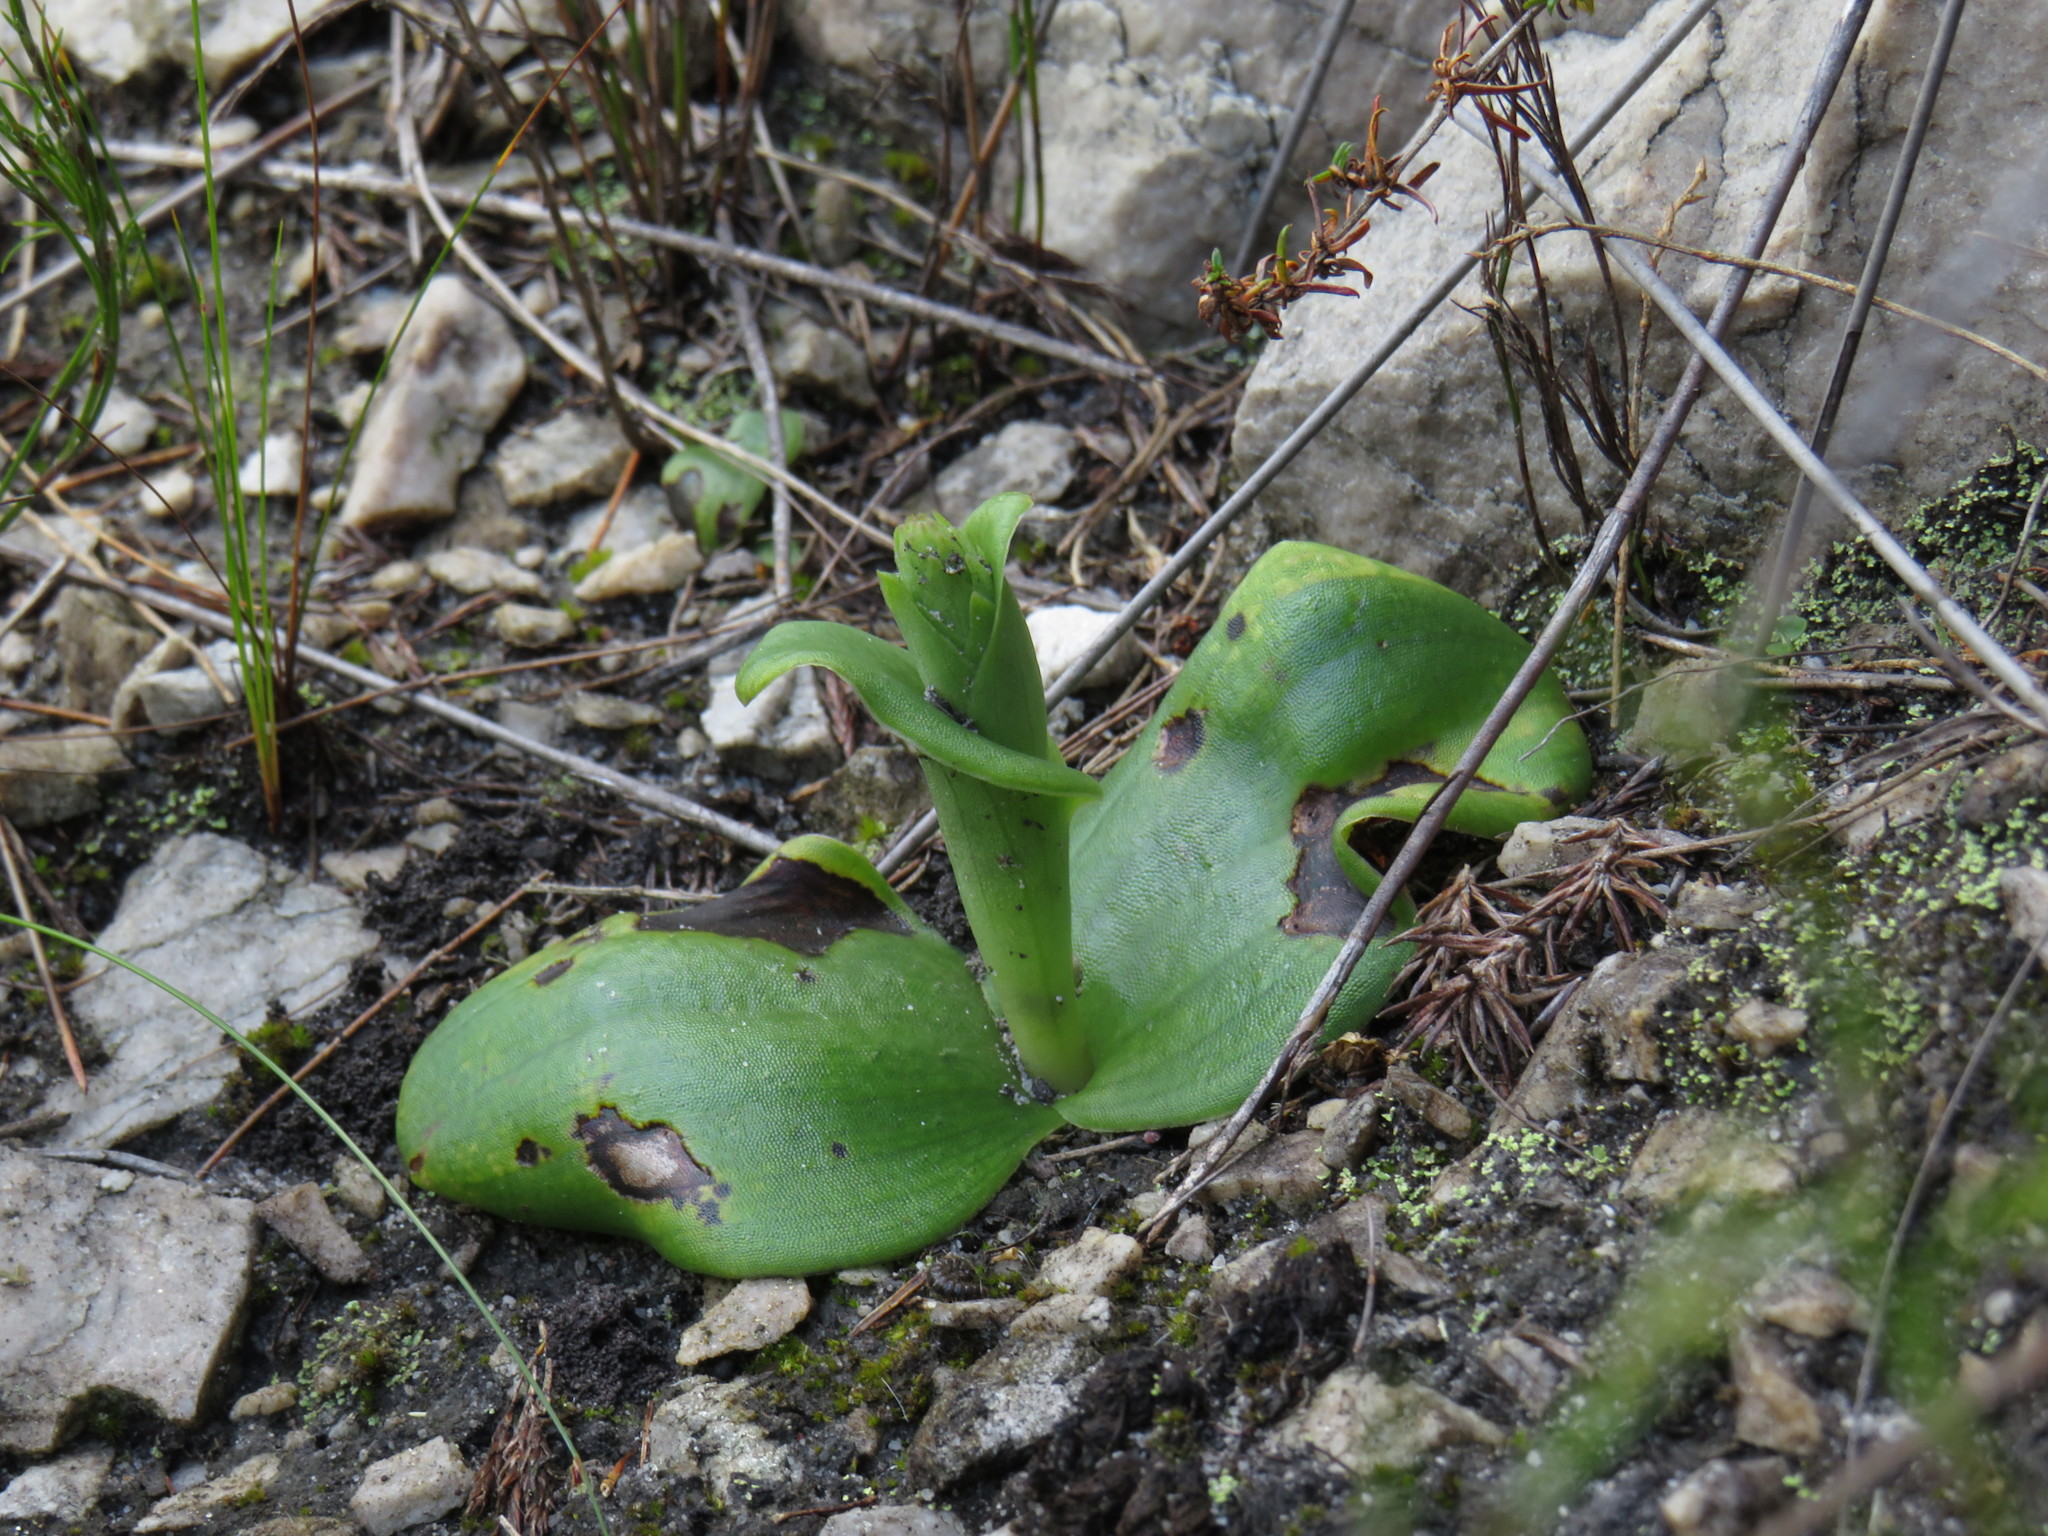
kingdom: Plantae
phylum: Tracheophyta
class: Liliopsida
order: Asparagales
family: Orchidaceae
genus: Satyrium
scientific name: Satyrium humile
